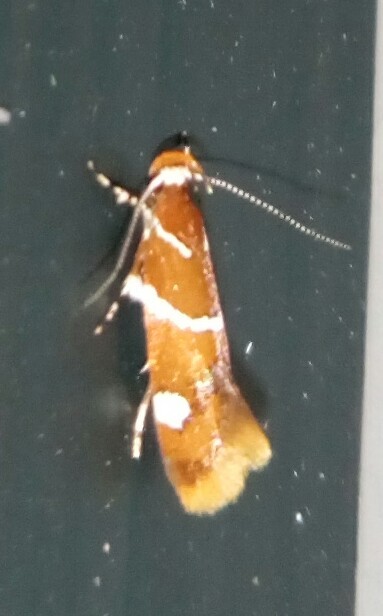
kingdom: Animalia
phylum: Arthropoda
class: Insecta
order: Lepidoptera
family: Oecophoridae
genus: Promalactis
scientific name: Promalactis suzukiella
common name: Moth
